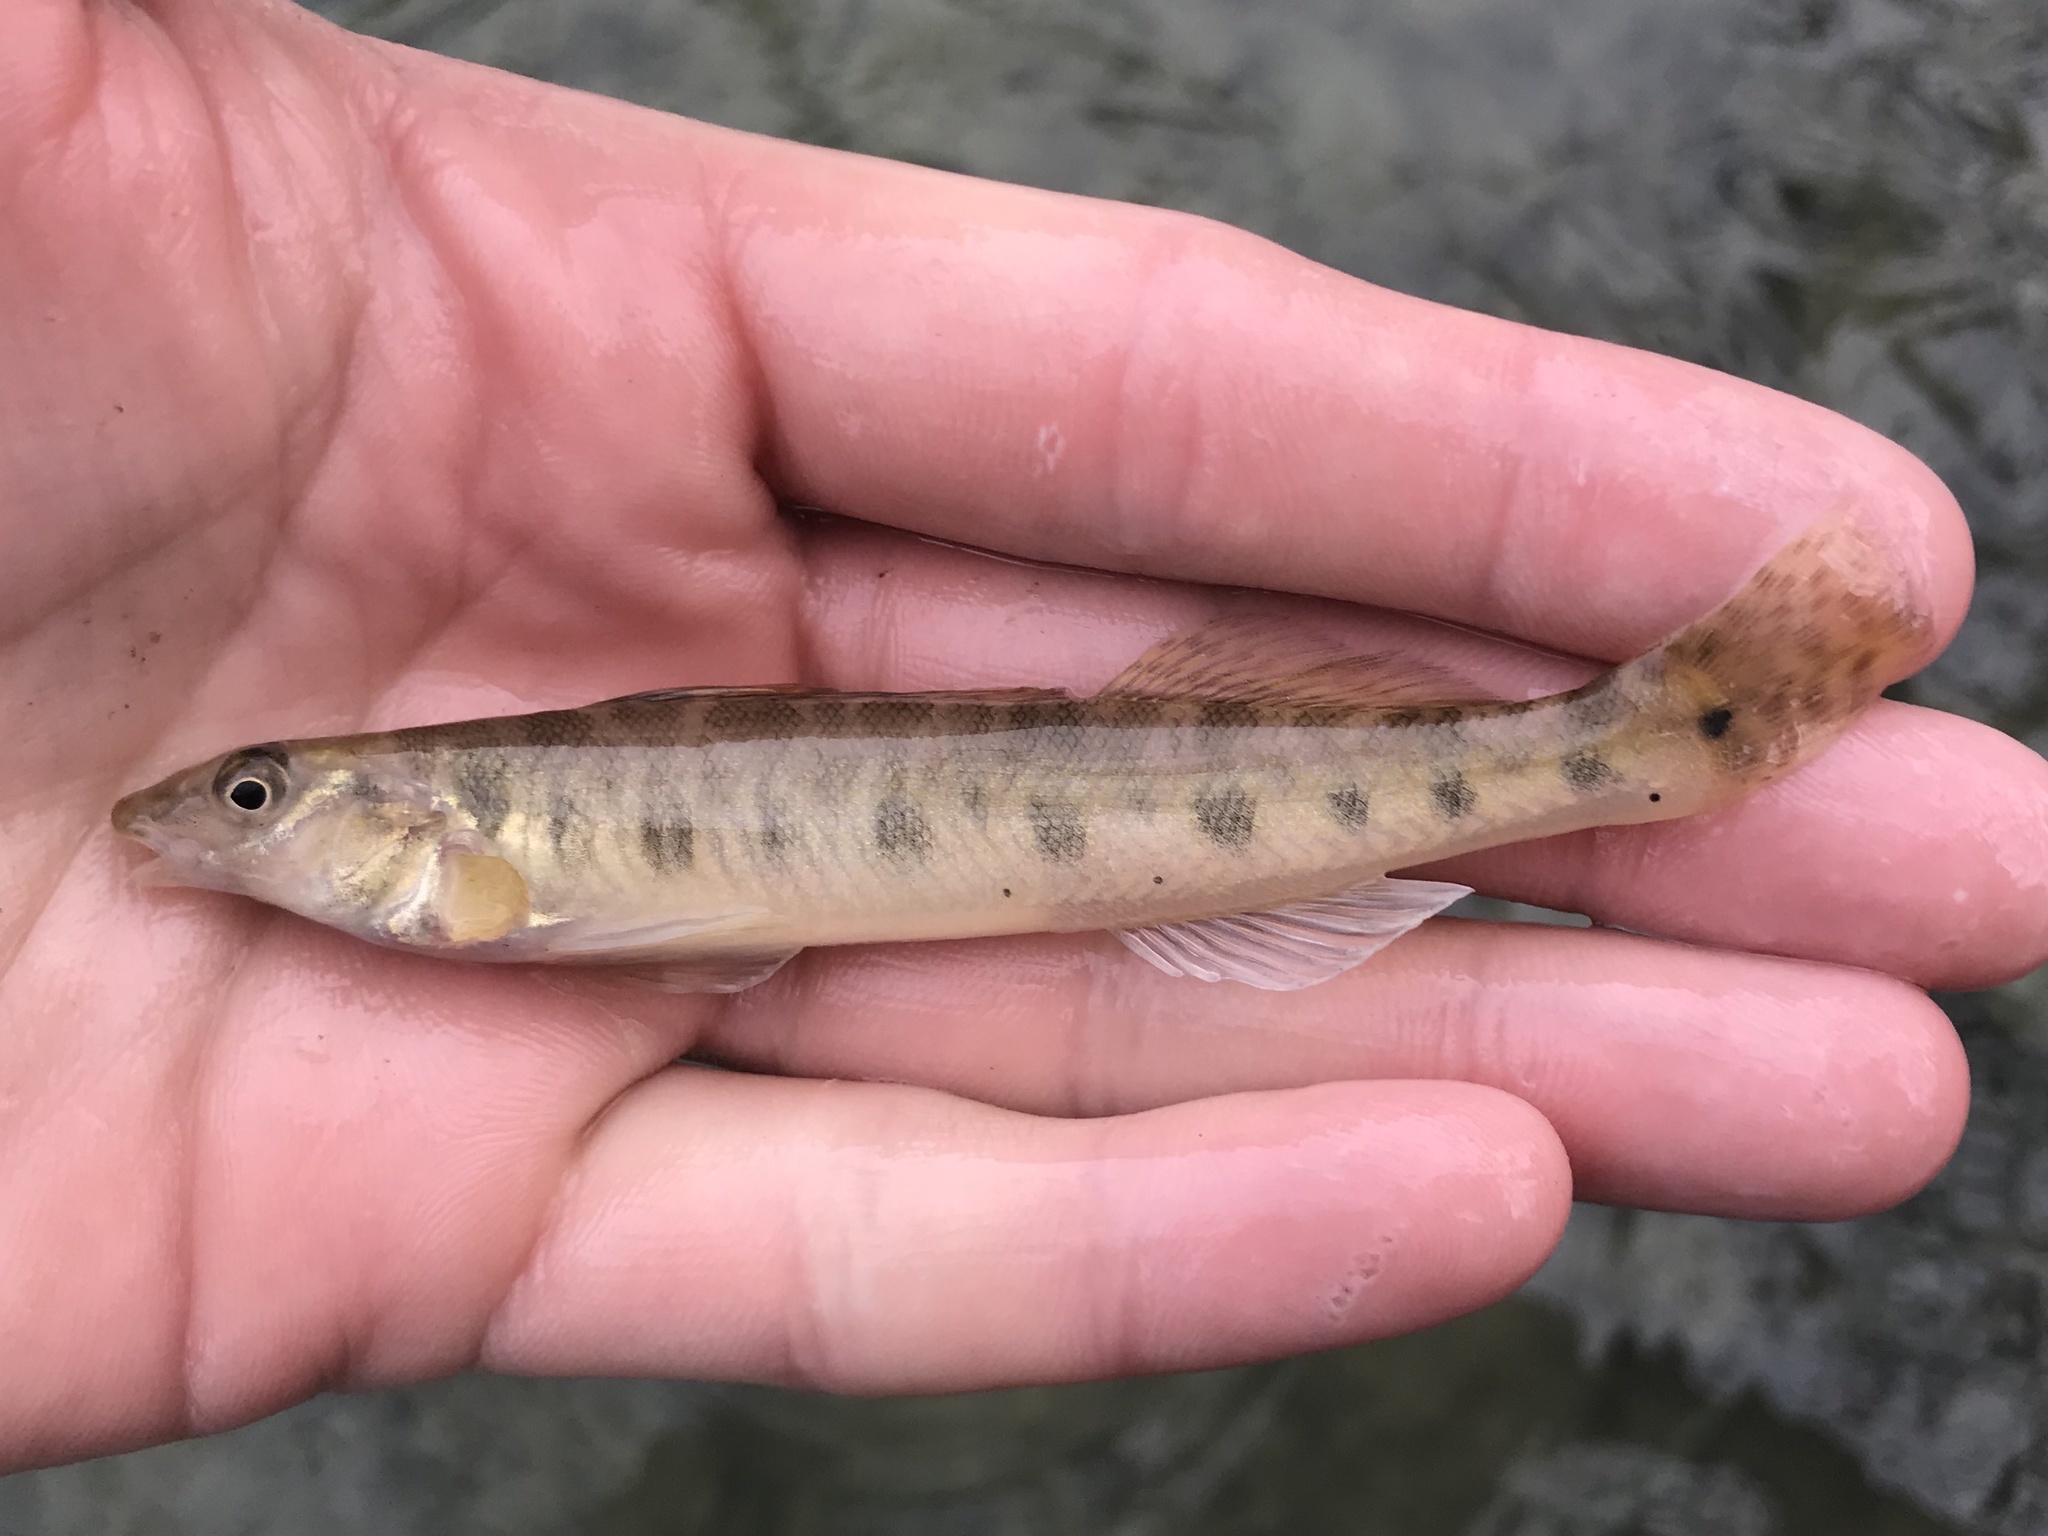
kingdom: Animalia
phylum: Chordata
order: Perciformes
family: Percidae
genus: Percina
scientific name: Percina carbonaria
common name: Texas logperch
